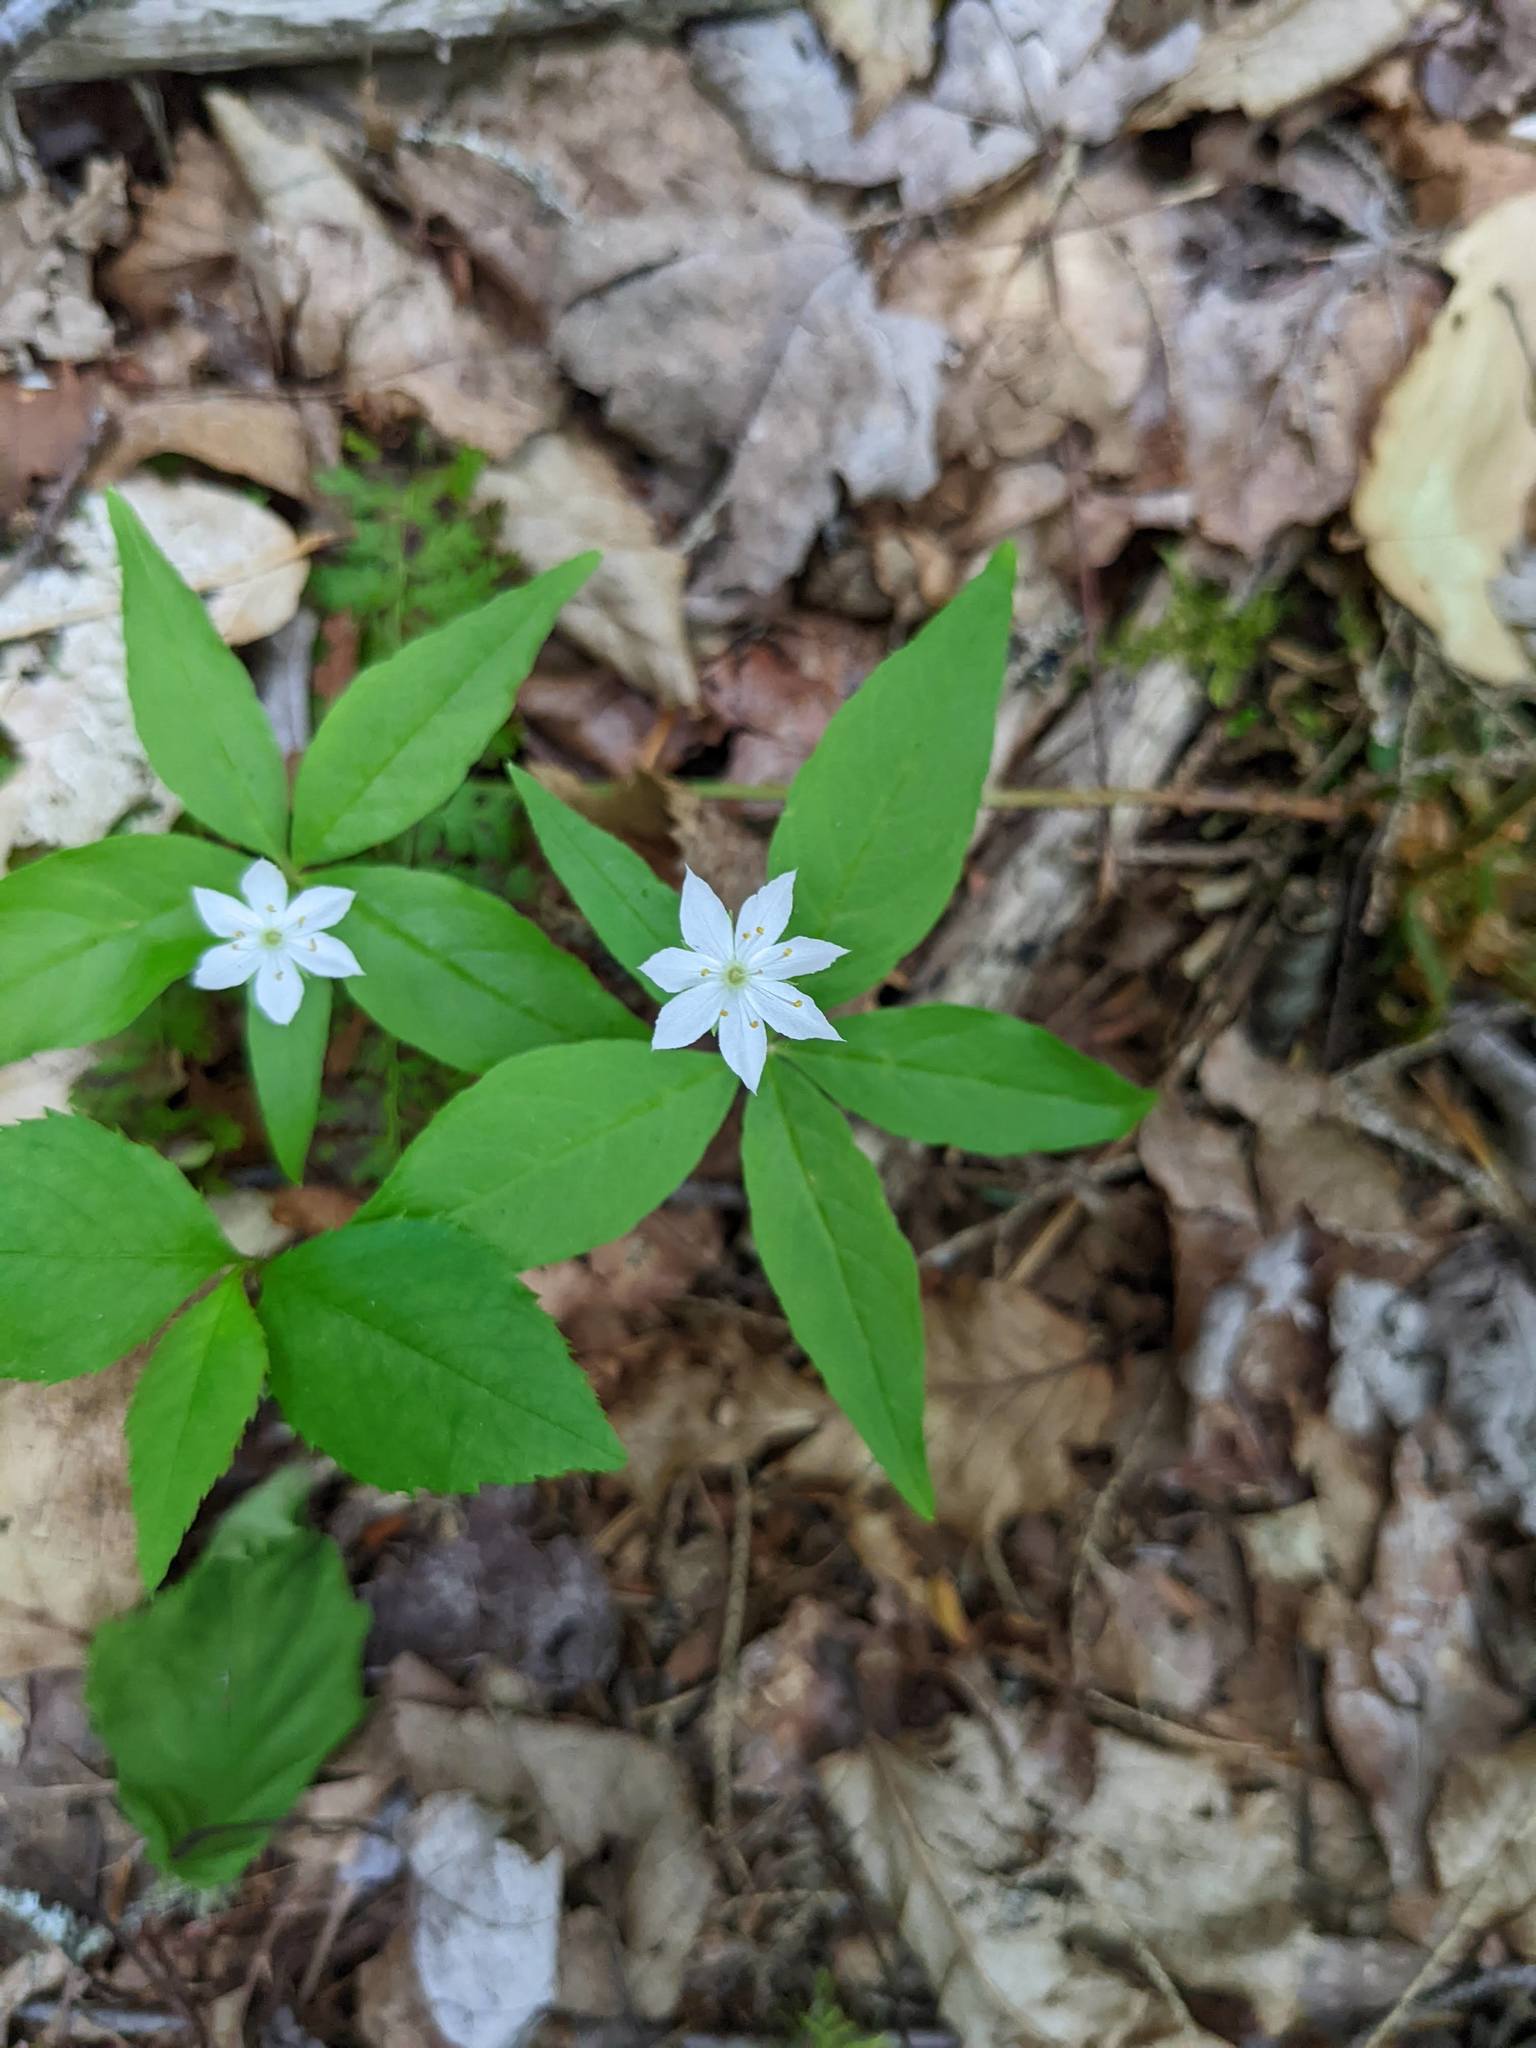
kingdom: Plantae
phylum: Tracheophyta
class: Magnoliopsida
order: Ericales
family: Primulaceae
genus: Lysimachia
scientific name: Lysimachia borealis
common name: American starflower
